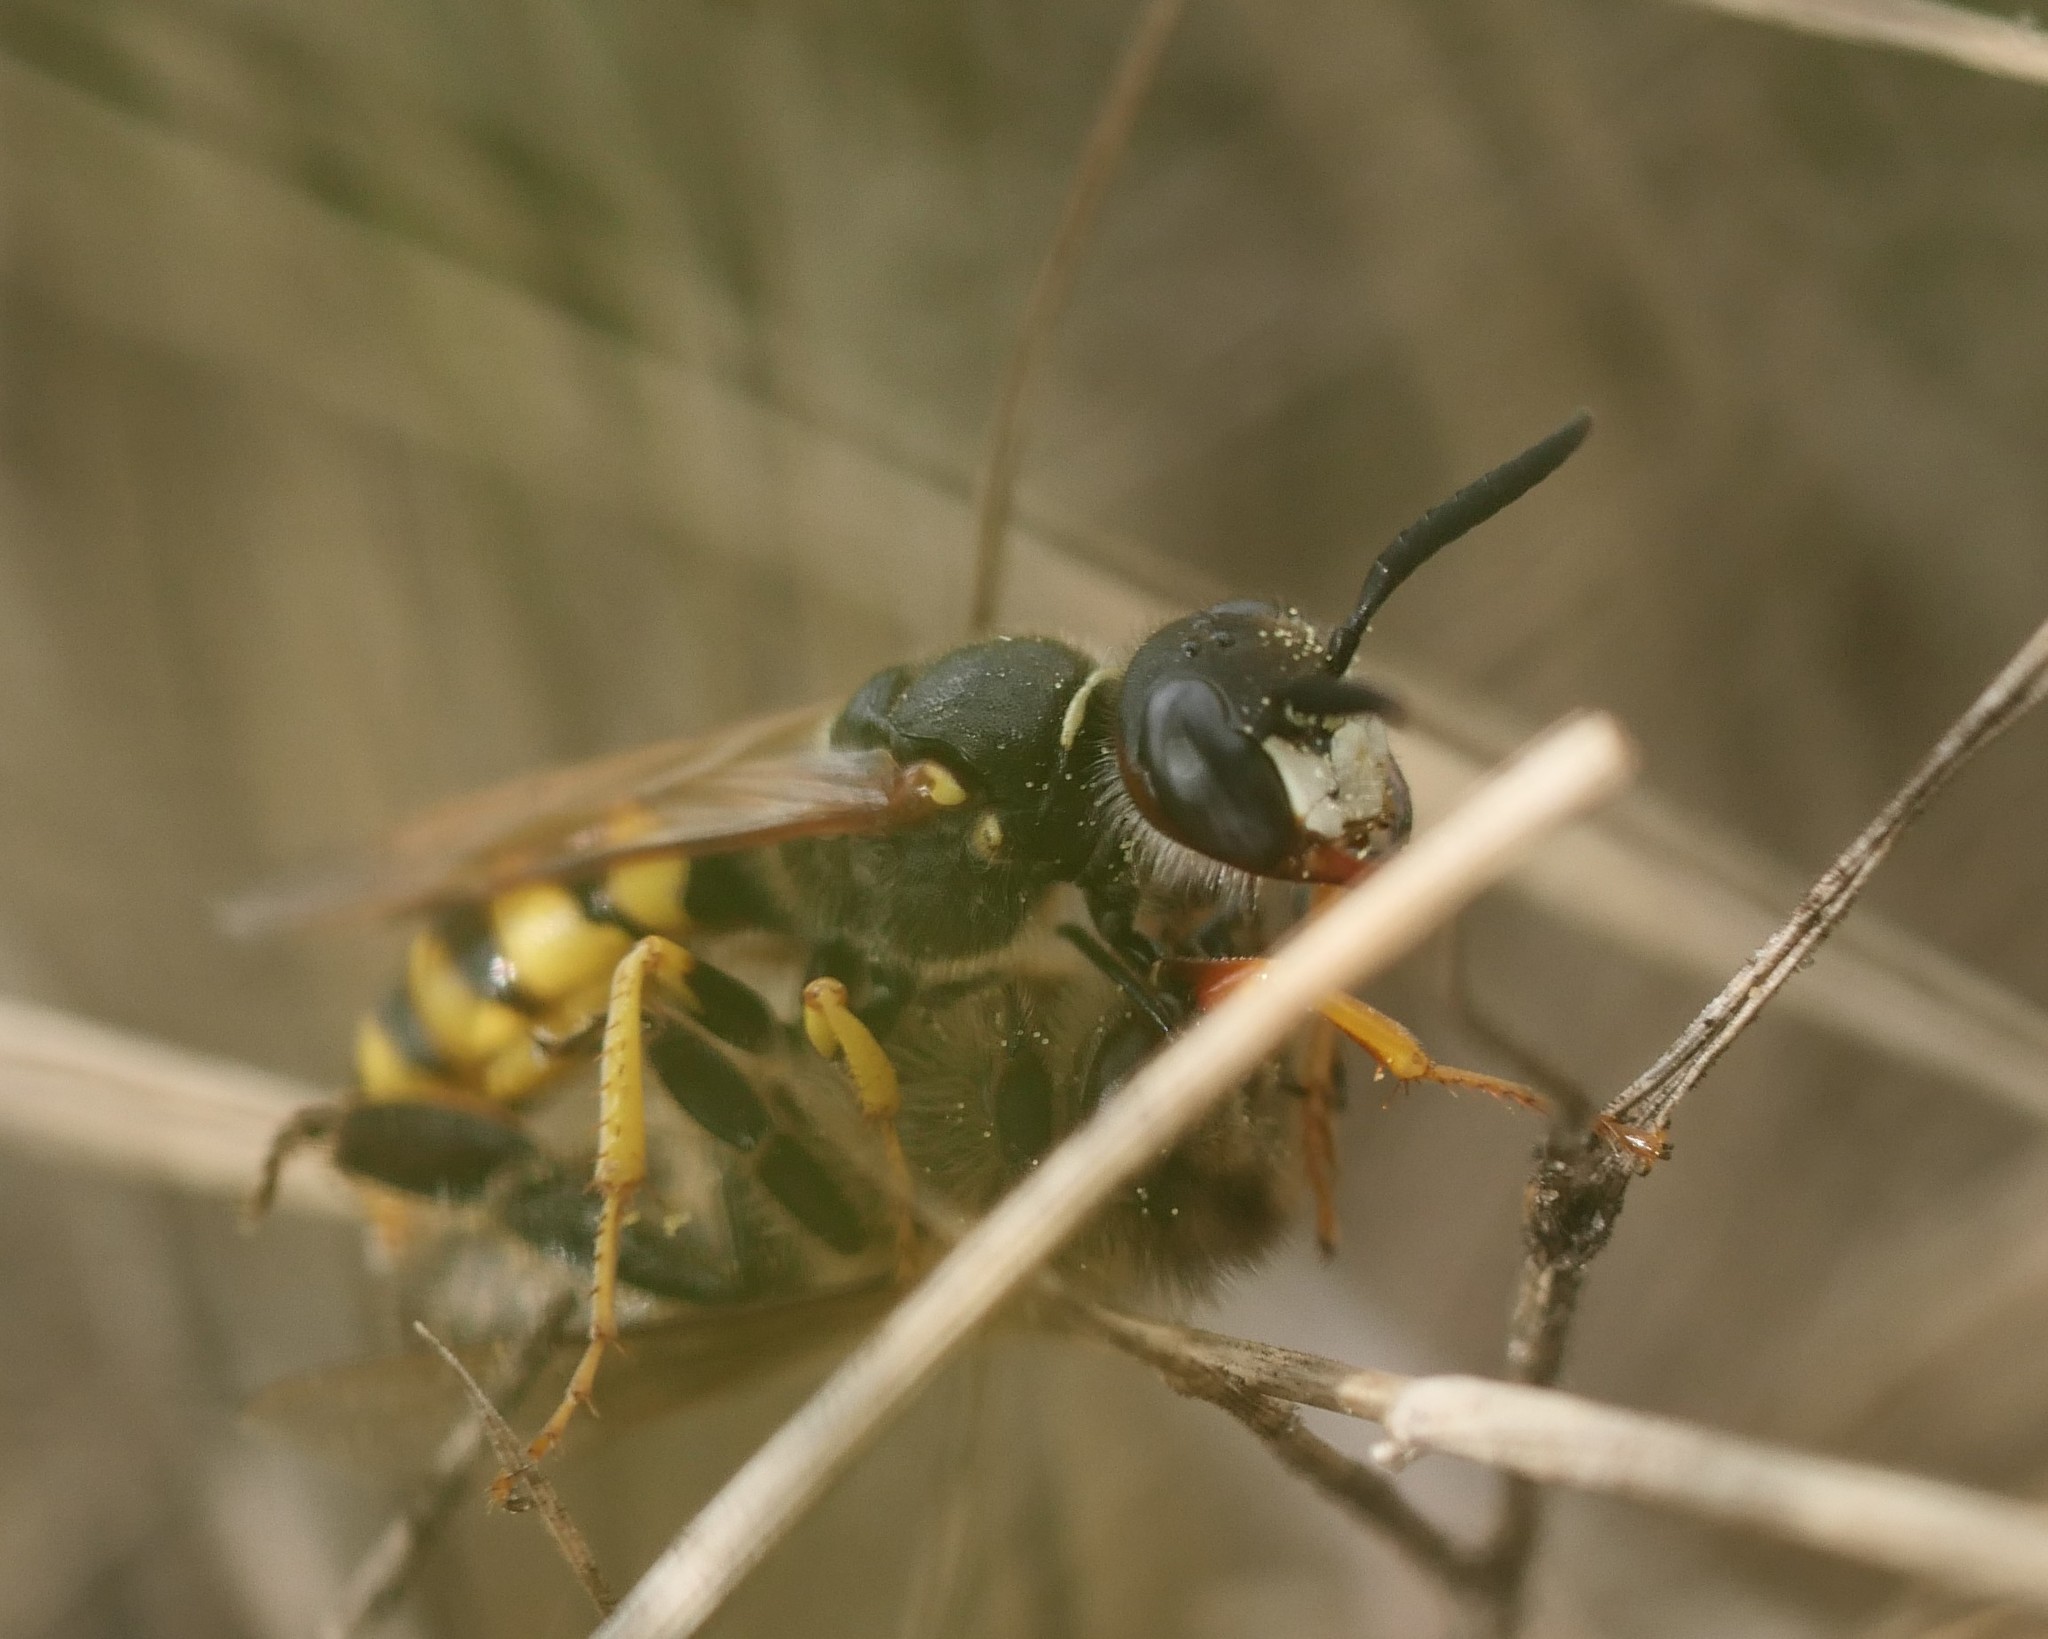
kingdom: Animalia
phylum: Arthropoda
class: Insecta
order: Hymenoptera
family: Crabronidae
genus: Philanthus
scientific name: Philanthus triangulum
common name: Bee wolf
